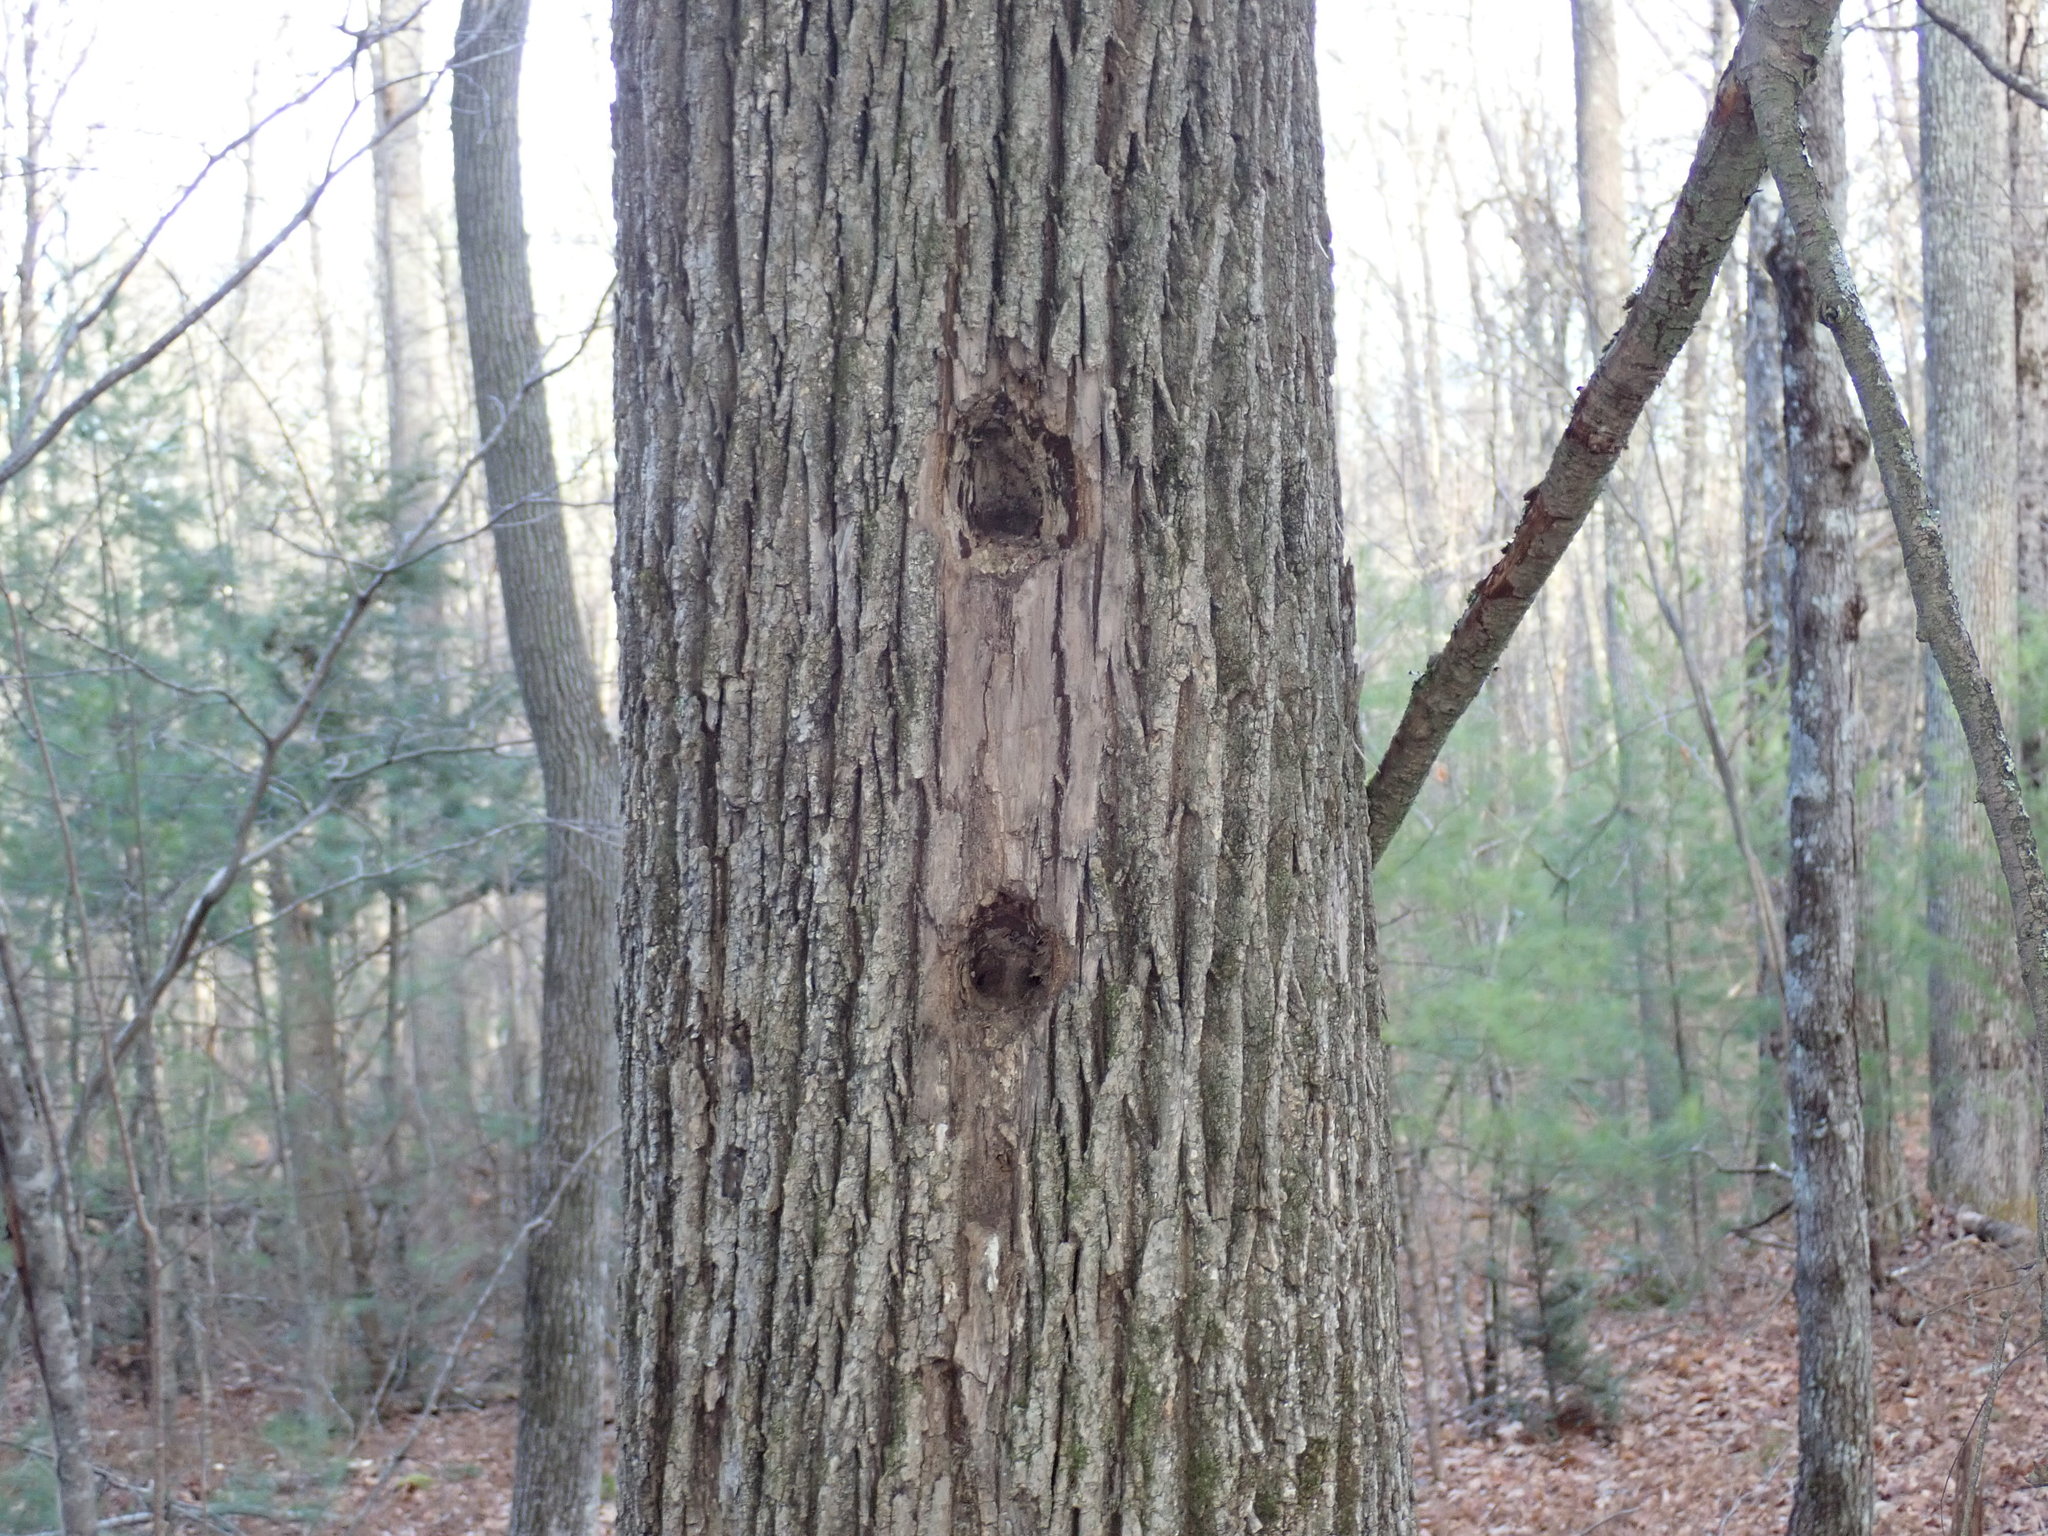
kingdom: Animalia
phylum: Chordata
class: Aves
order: Piciformes
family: Picidae
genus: Dryocopus
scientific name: Dryocopus pileatus
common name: Pileated woodpecker
